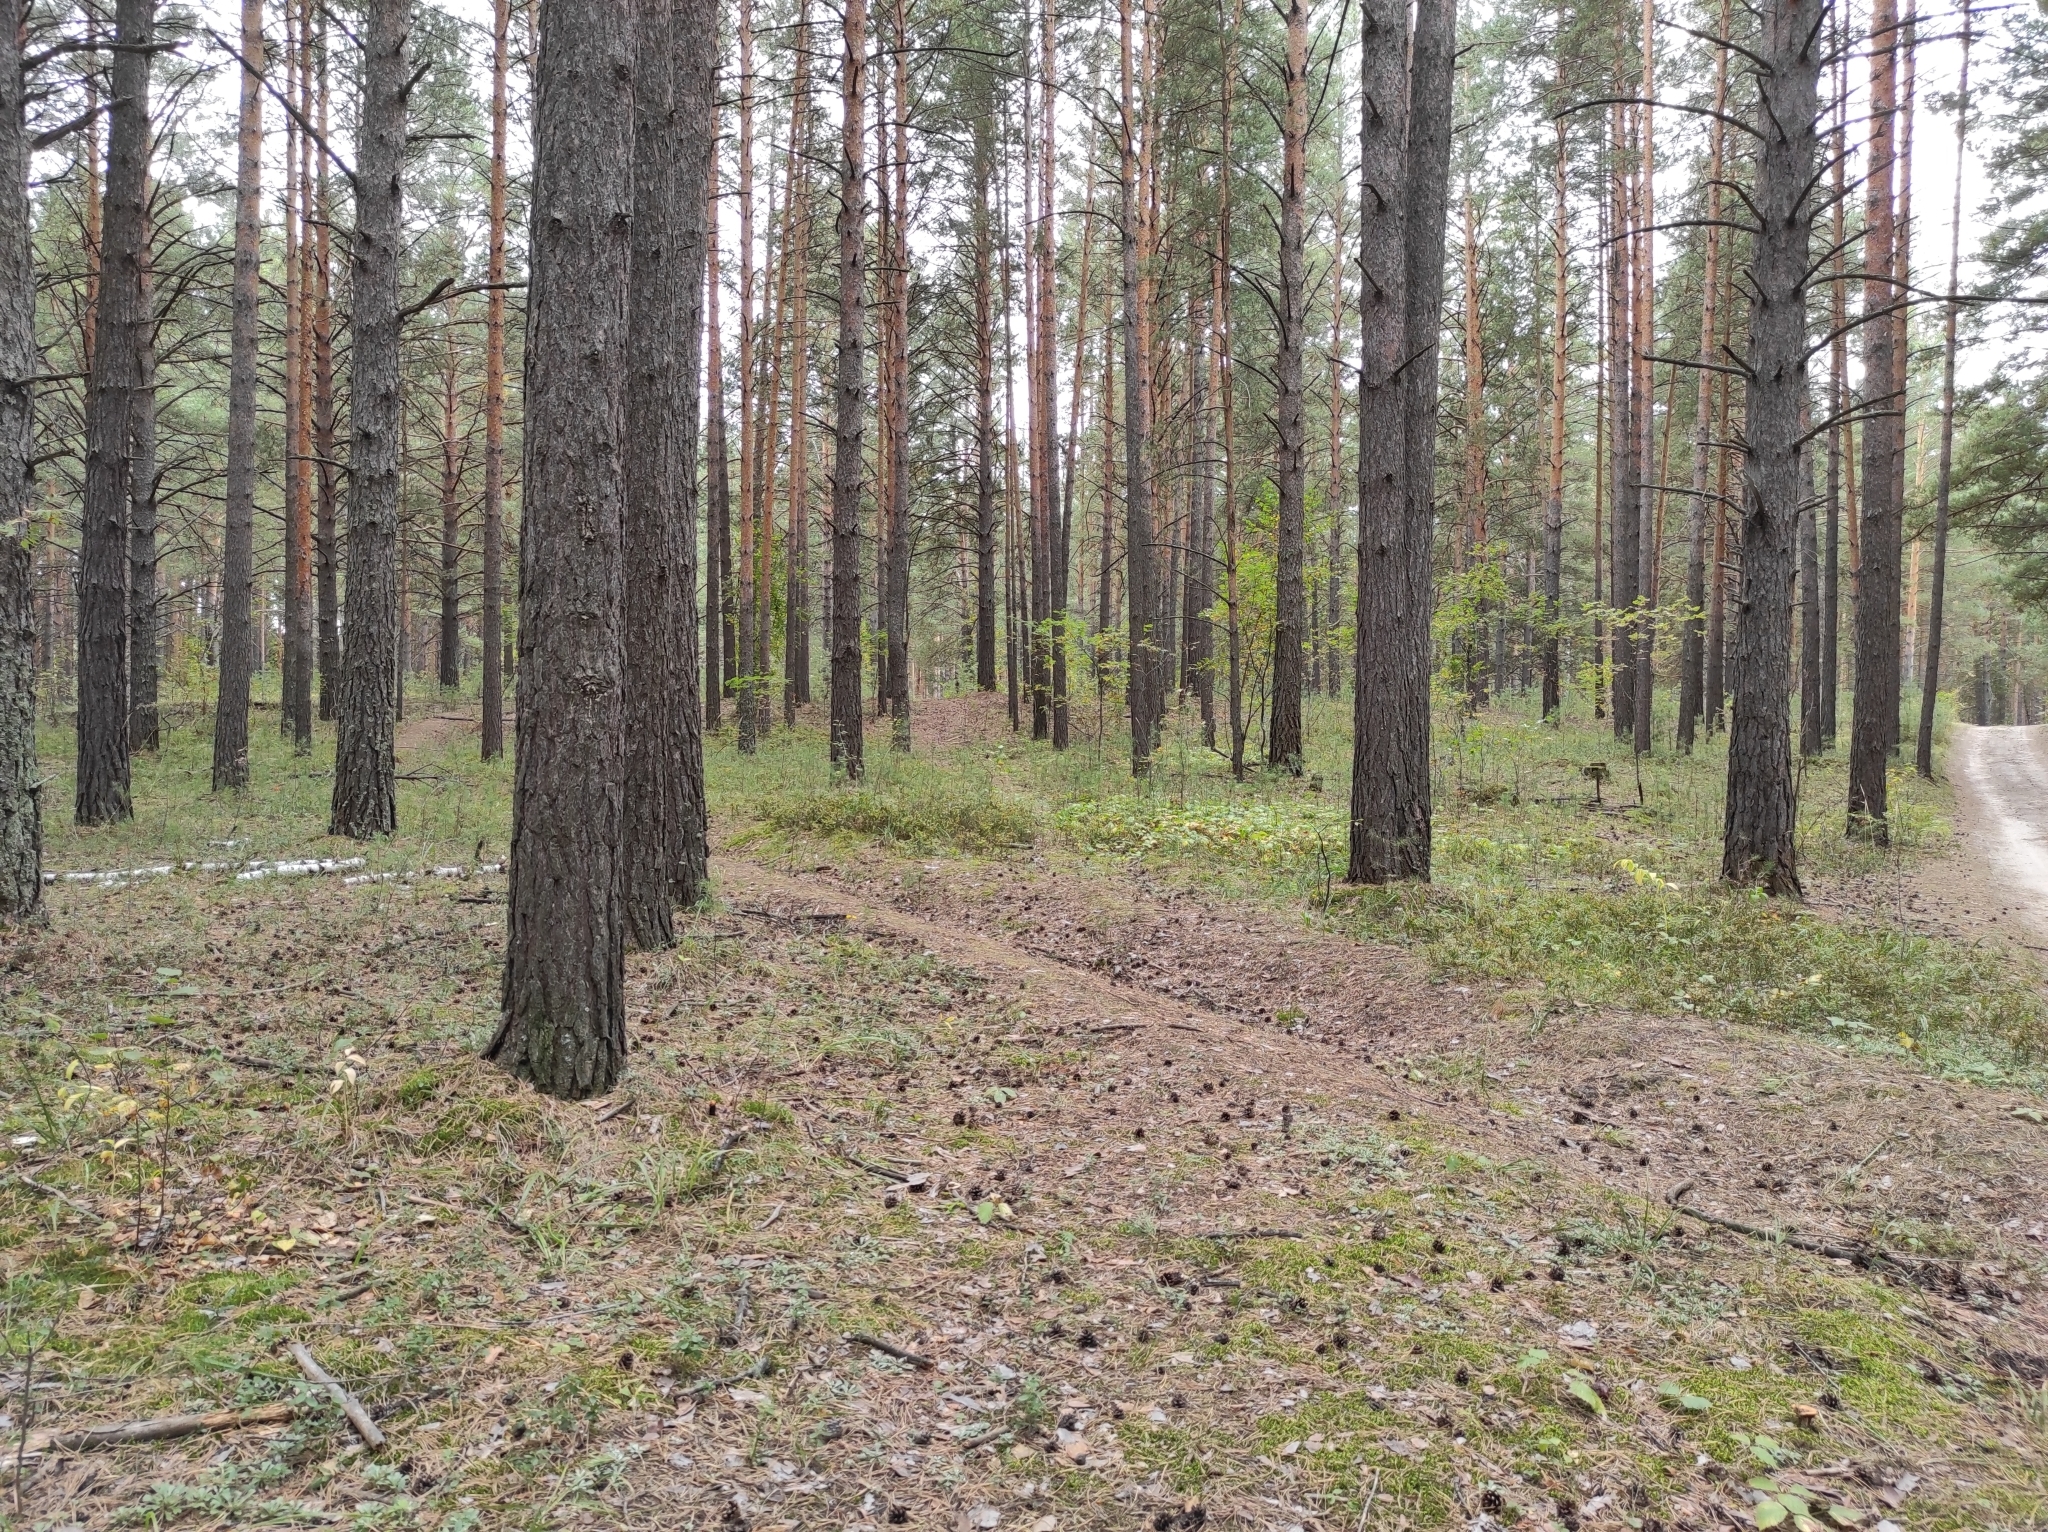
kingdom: Plantae
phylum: Tracheophyta
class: Magnoliopsida
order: Asterales
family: Asteraceae
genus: Antennaria
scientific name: Antennaria dioica
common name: Mountain everlasting
